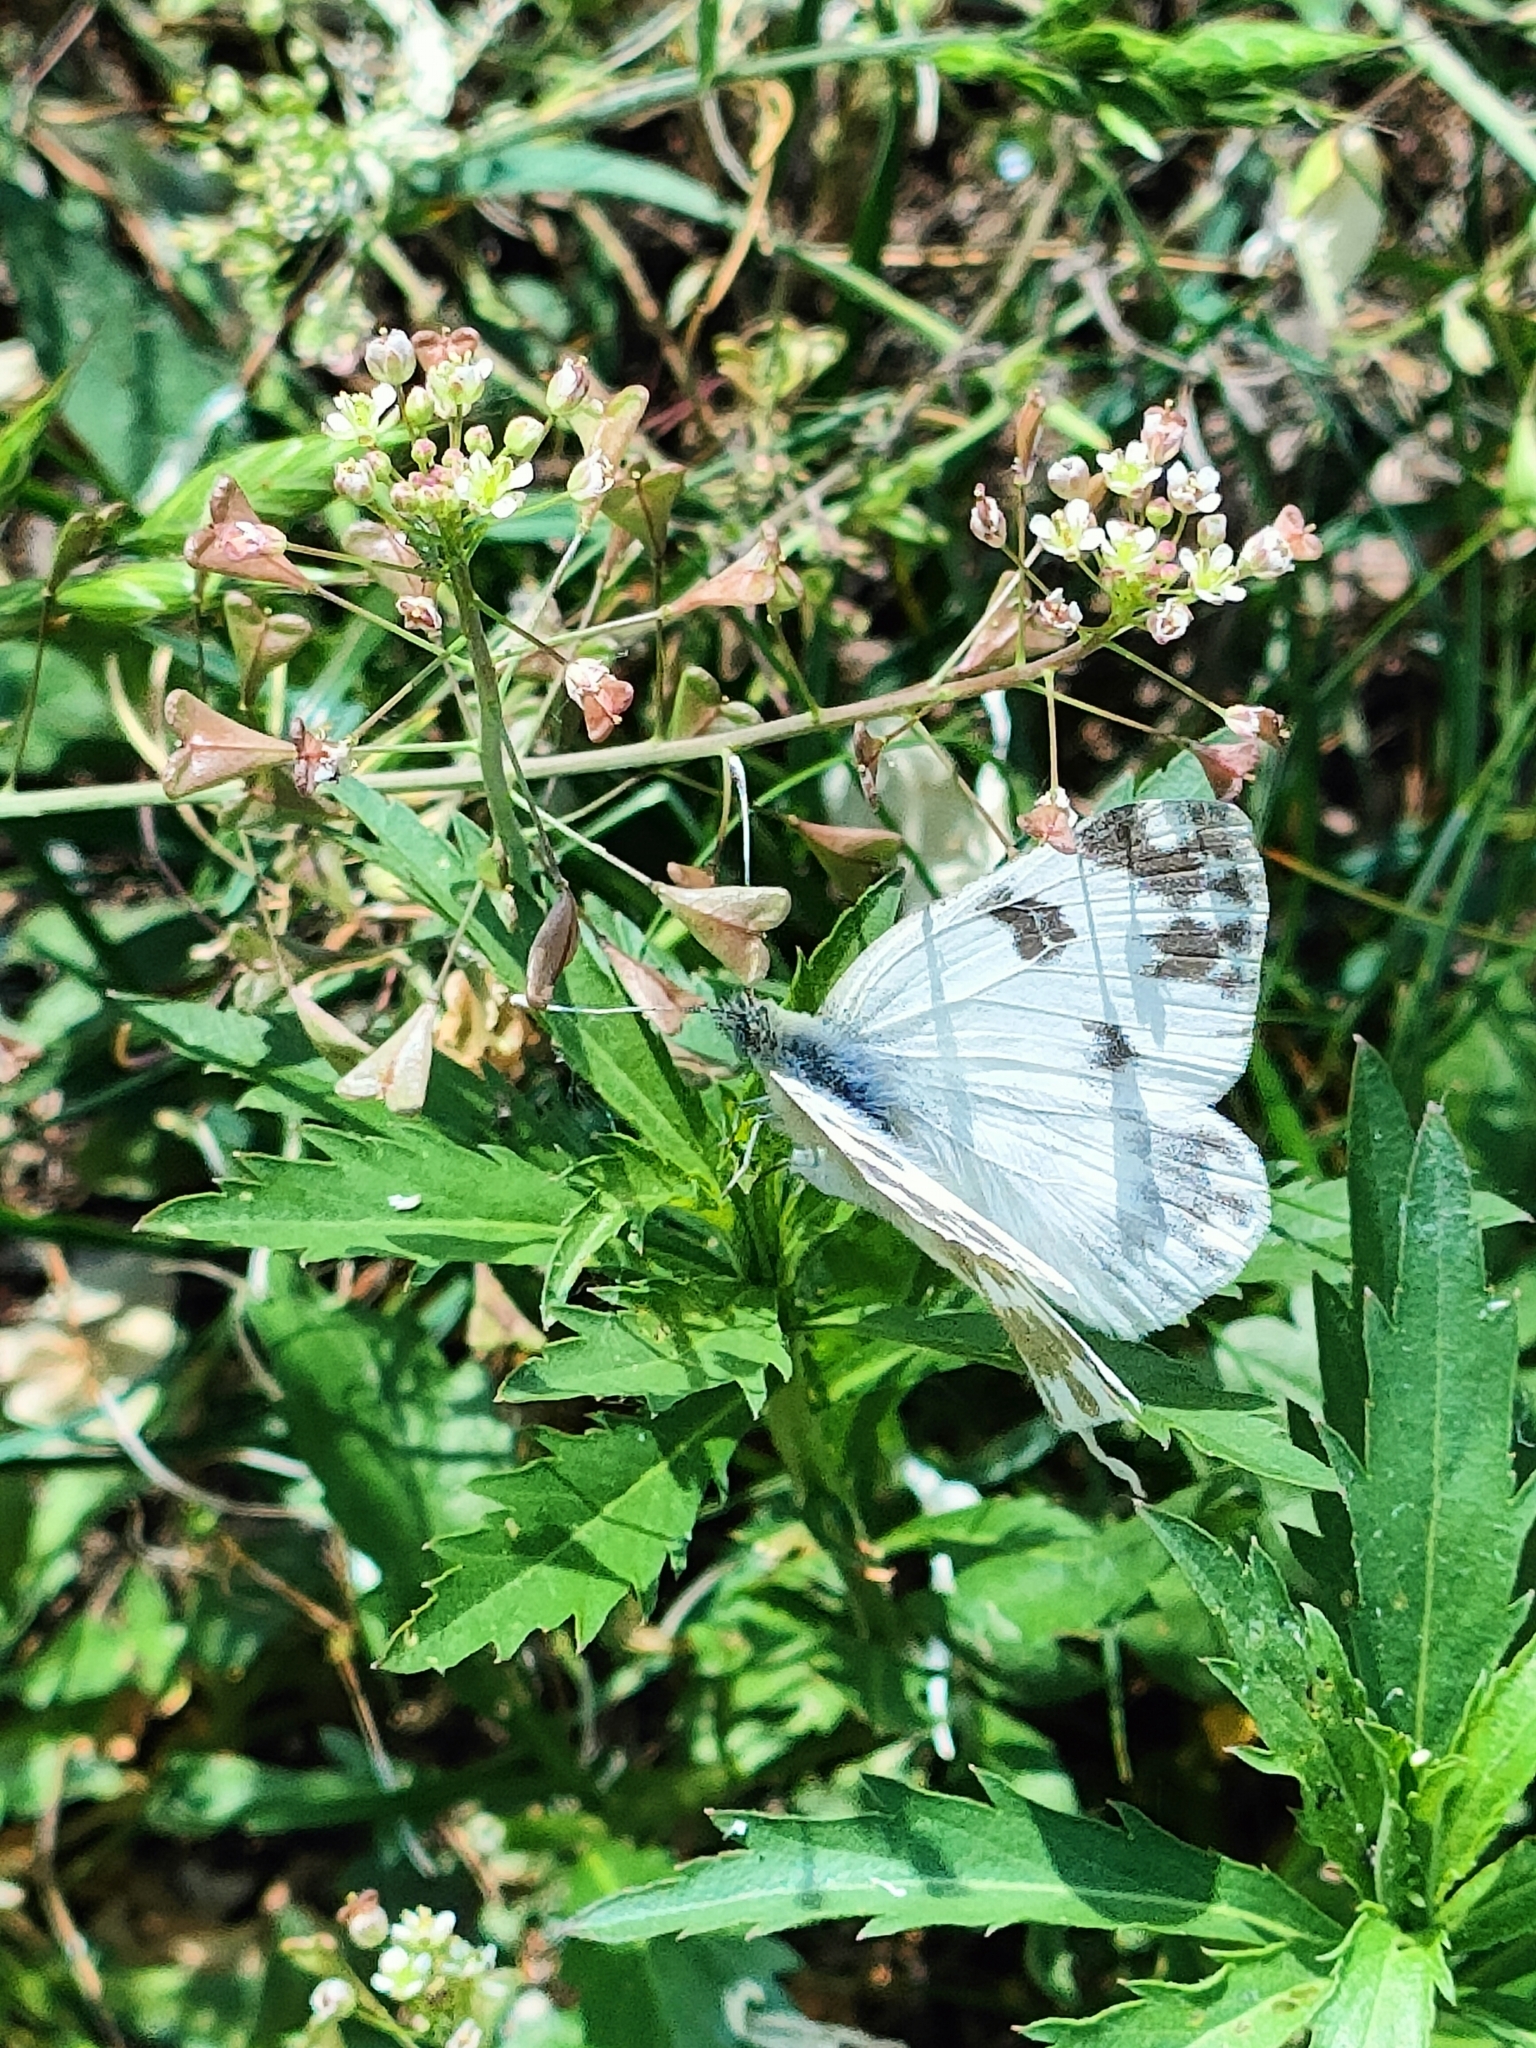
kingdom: Animalia
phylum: Arthropoda
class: Insecta
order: Lepidoptera
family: Pieridae
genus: Pontia
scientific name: Pontia edusa
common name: Eastern bath white
